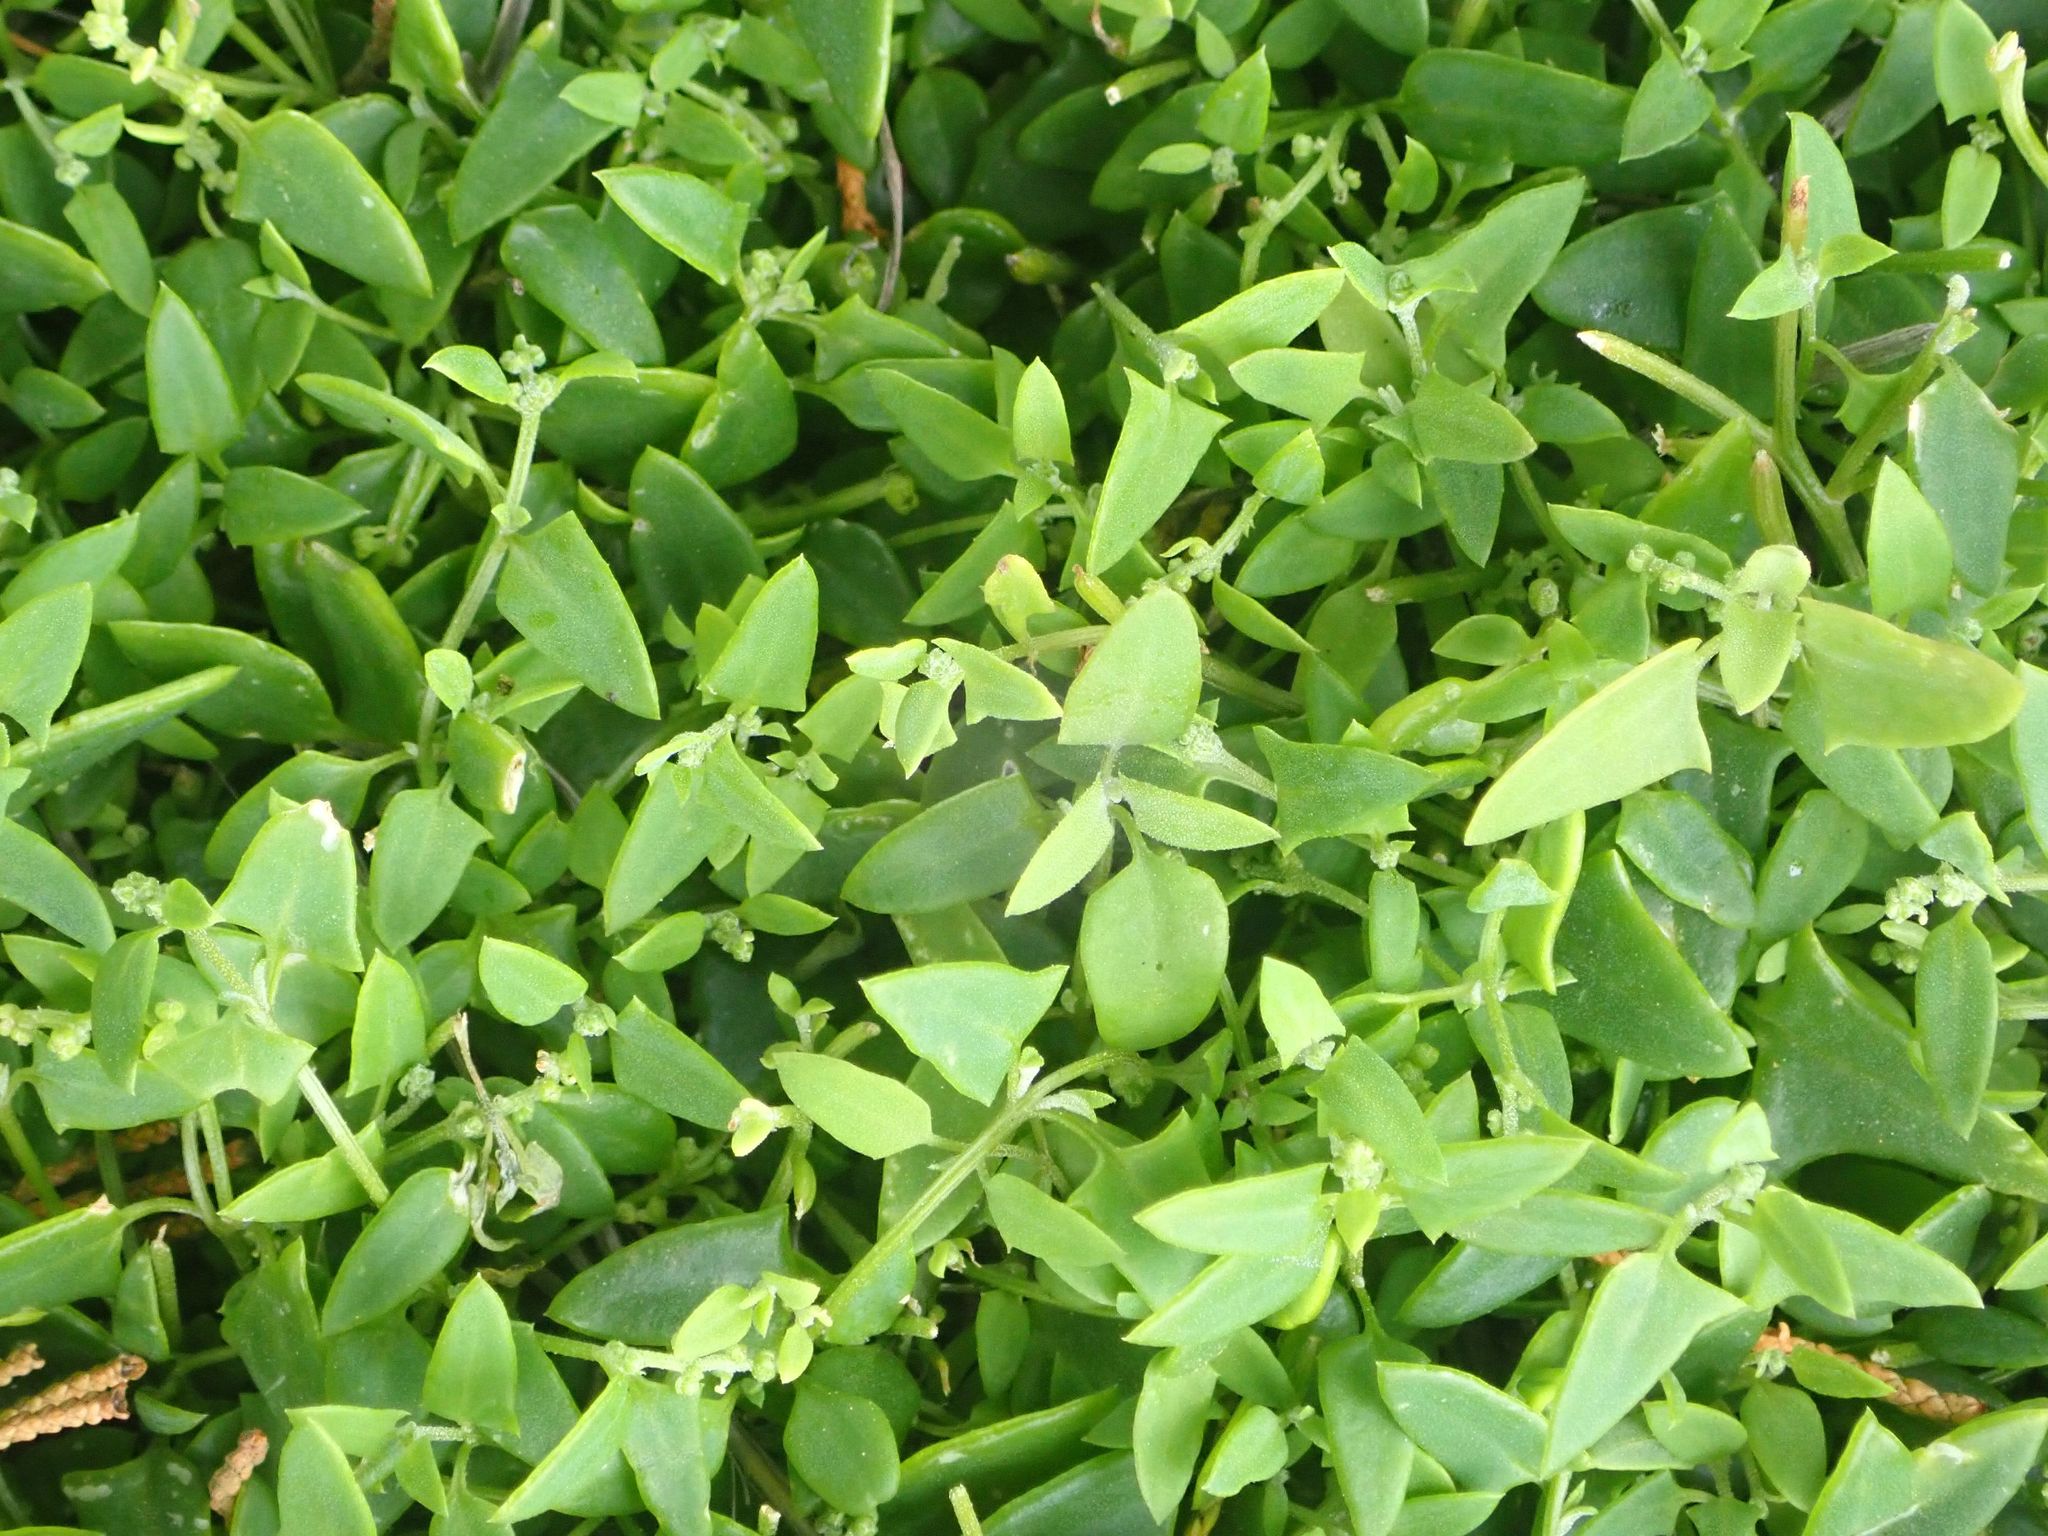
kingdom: Plantae
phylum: Tracheophyta
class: Magnoliopsida
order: Caryophyllales
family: Amaranthaceae
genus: Chenopodium
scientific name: Chenopodium nutans
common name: Climbing-saltbush
